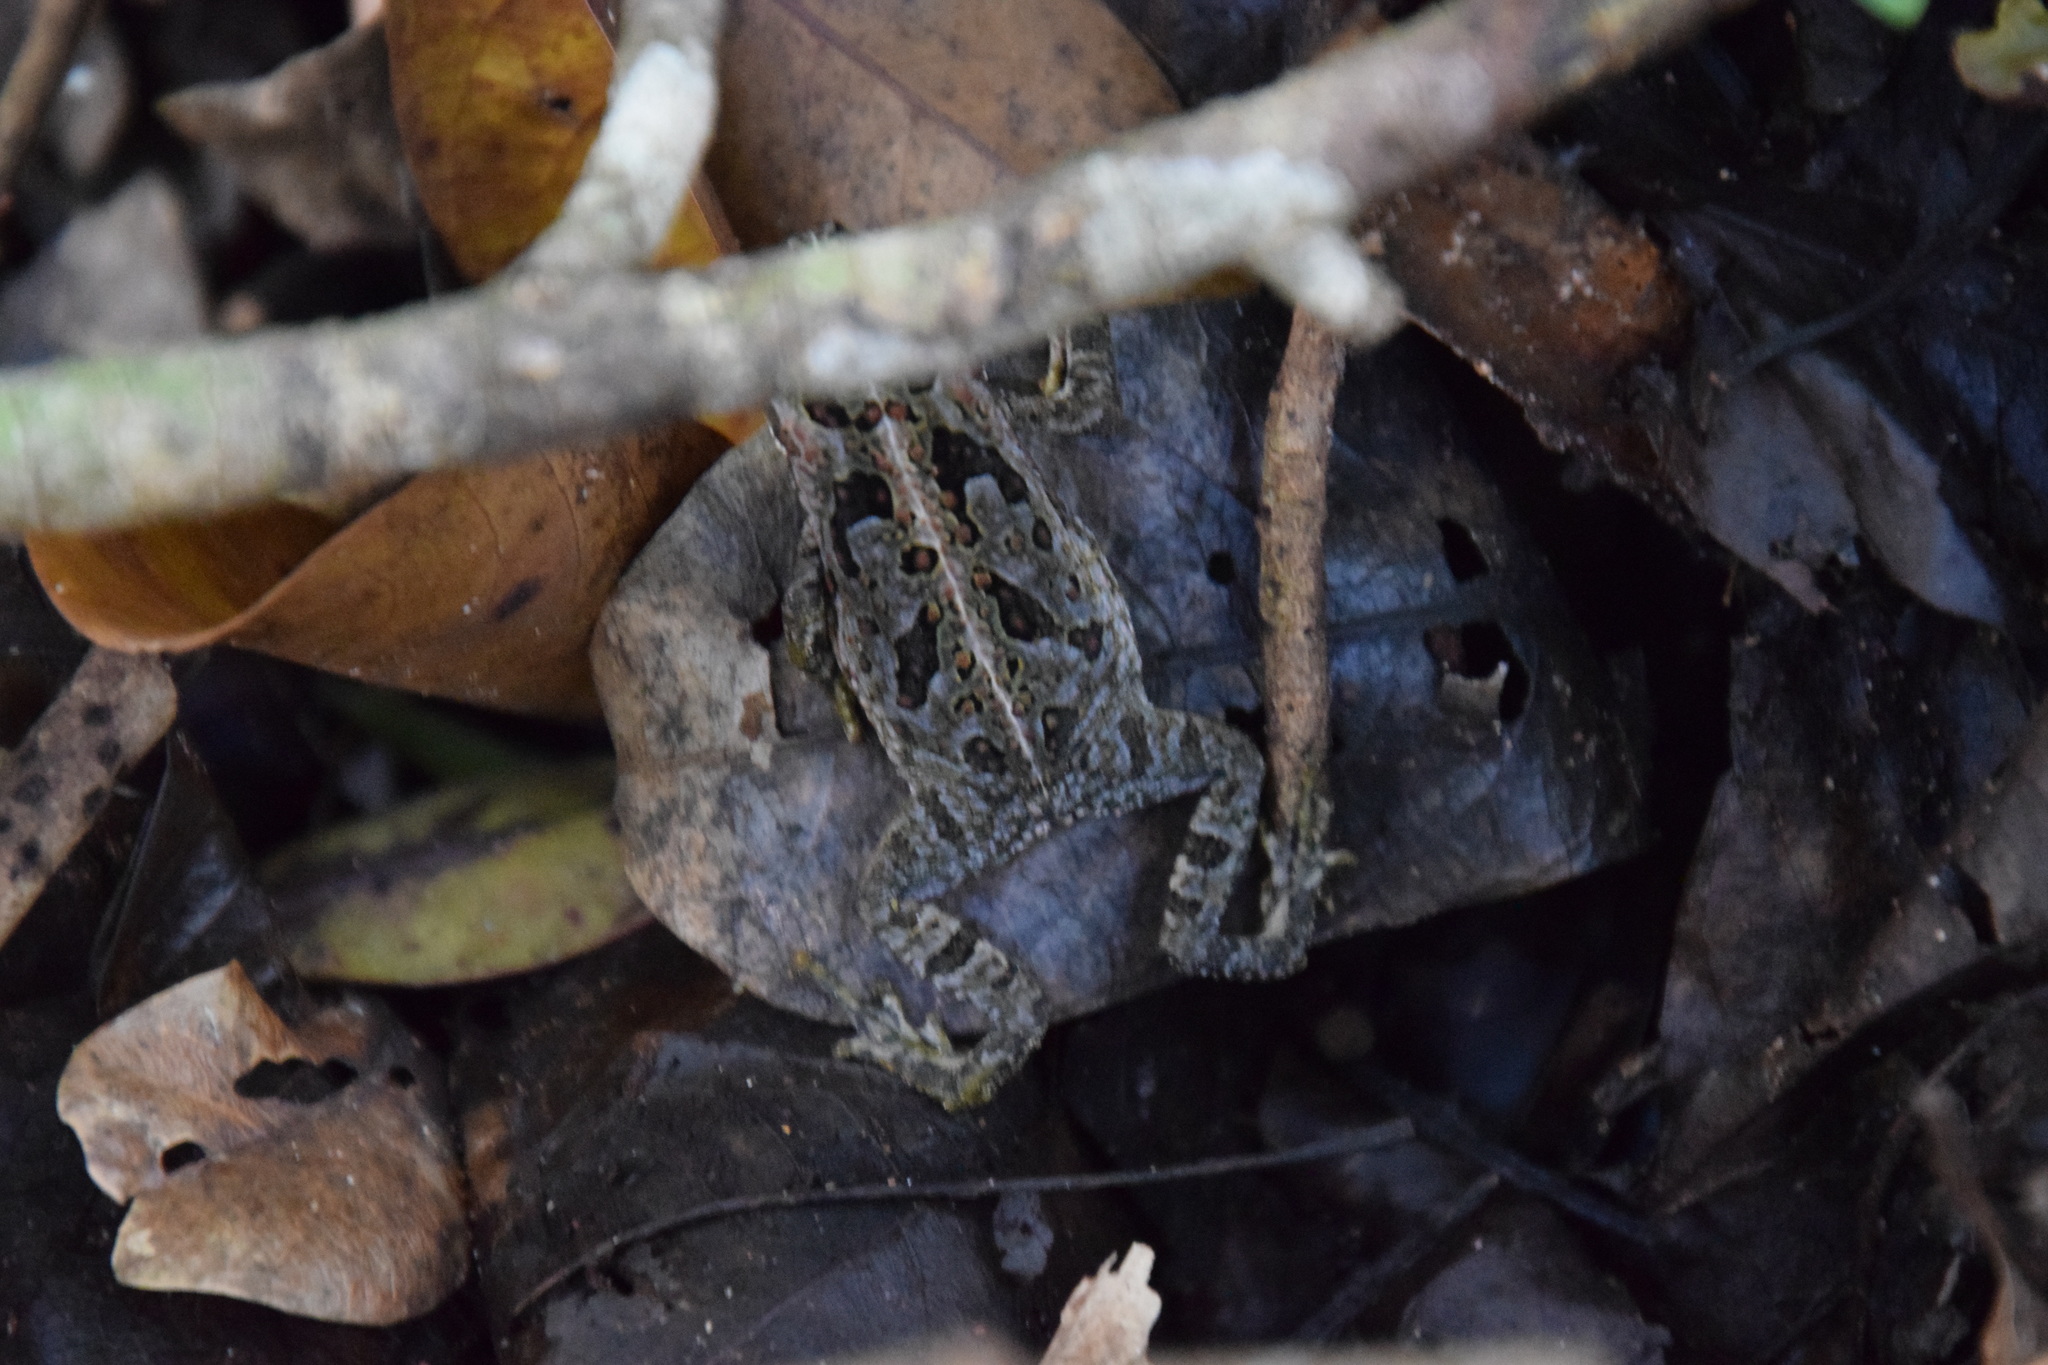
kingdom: Animalia
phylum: Chordata
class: Amphibia
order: Anura
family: Bufonidae
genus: Rhinella
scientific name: Rhinella marina
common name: Cane toad
